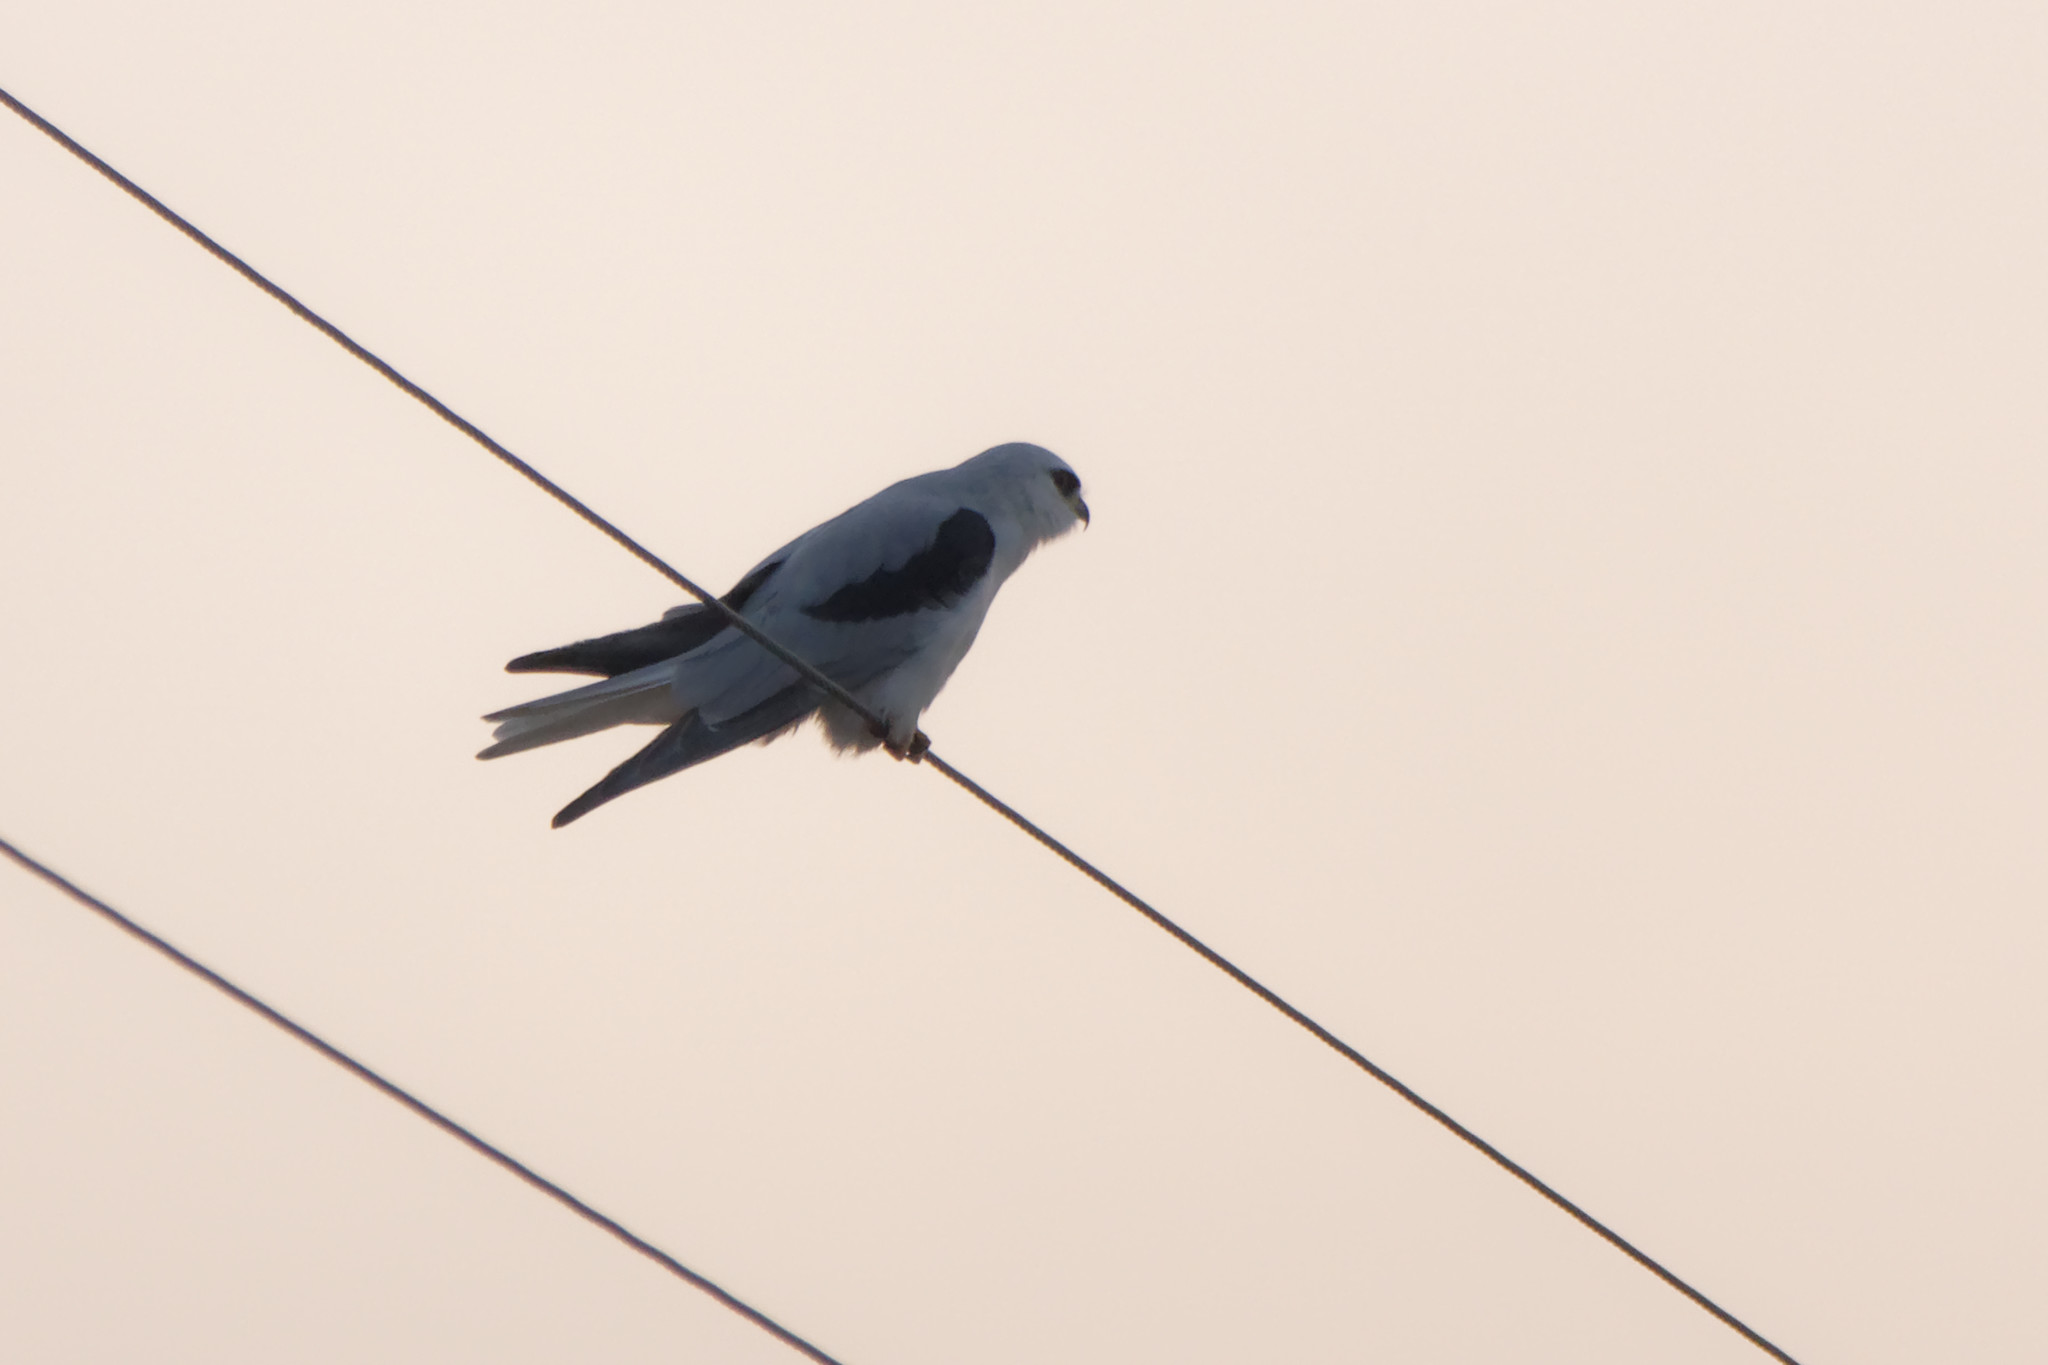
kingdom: Animalia
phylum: Chordata
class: Aves
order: Accipitriformes
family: Accipitridae
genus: Elanus
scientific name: Elanus leucurus
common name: White-tailed kite
